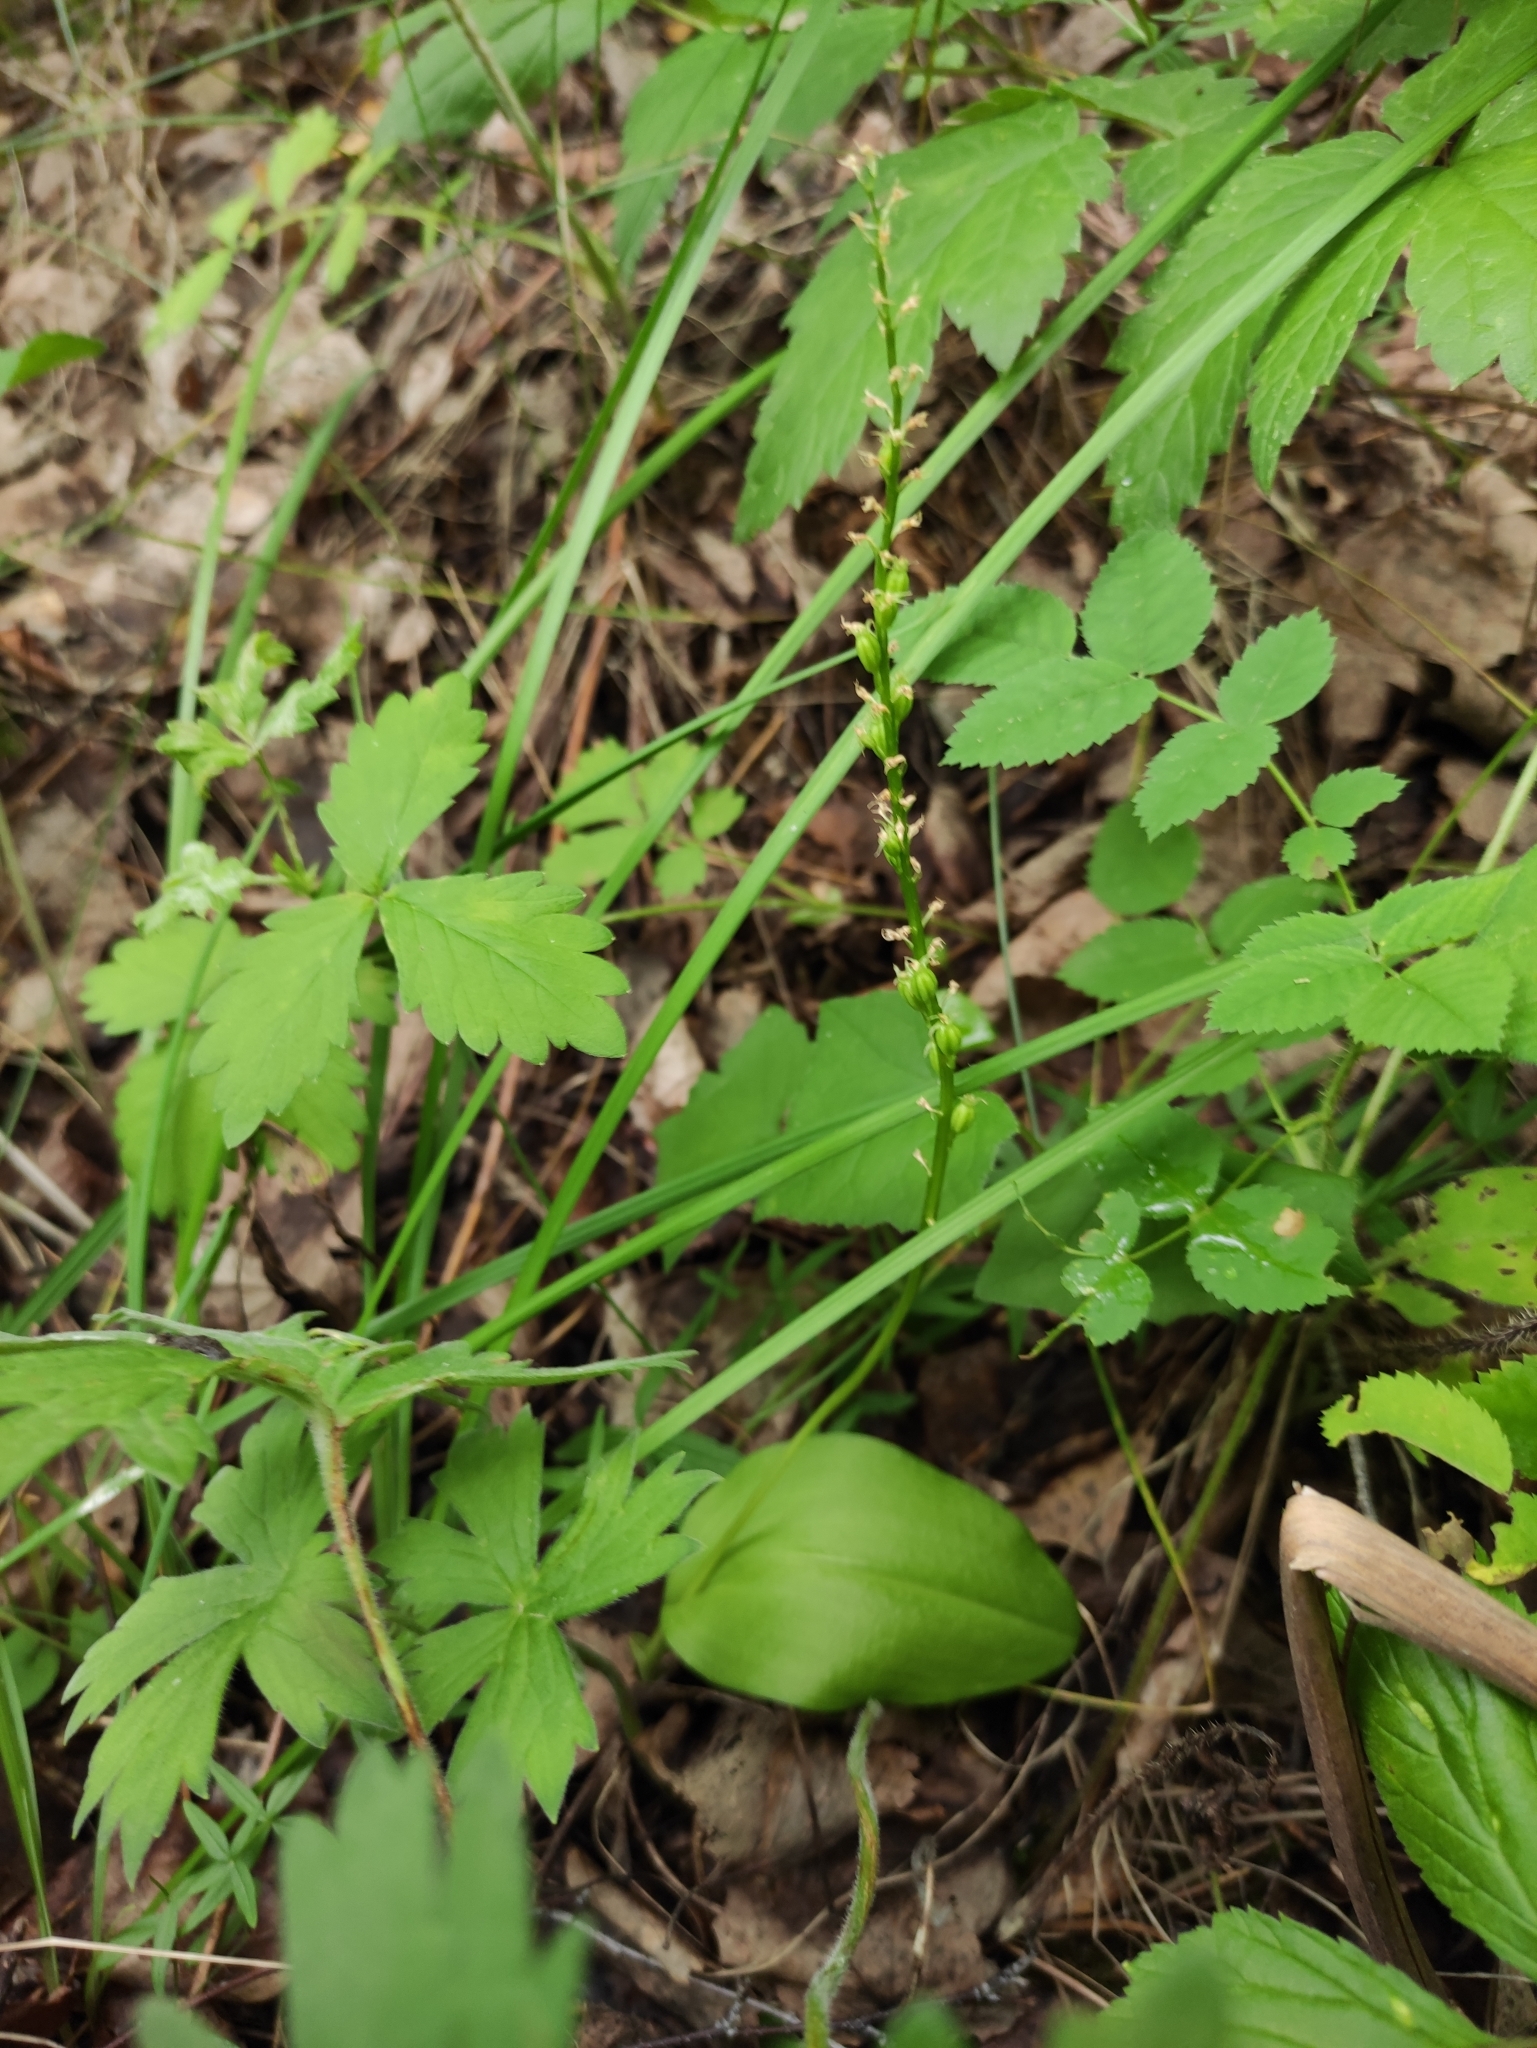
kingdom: Plantae
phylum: Tracheophyta
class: Liliopsida
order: Asparagales
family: Orchidaceae
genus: Malaxis
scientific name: Malaxis monophyllos
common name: White adder's-mouth
